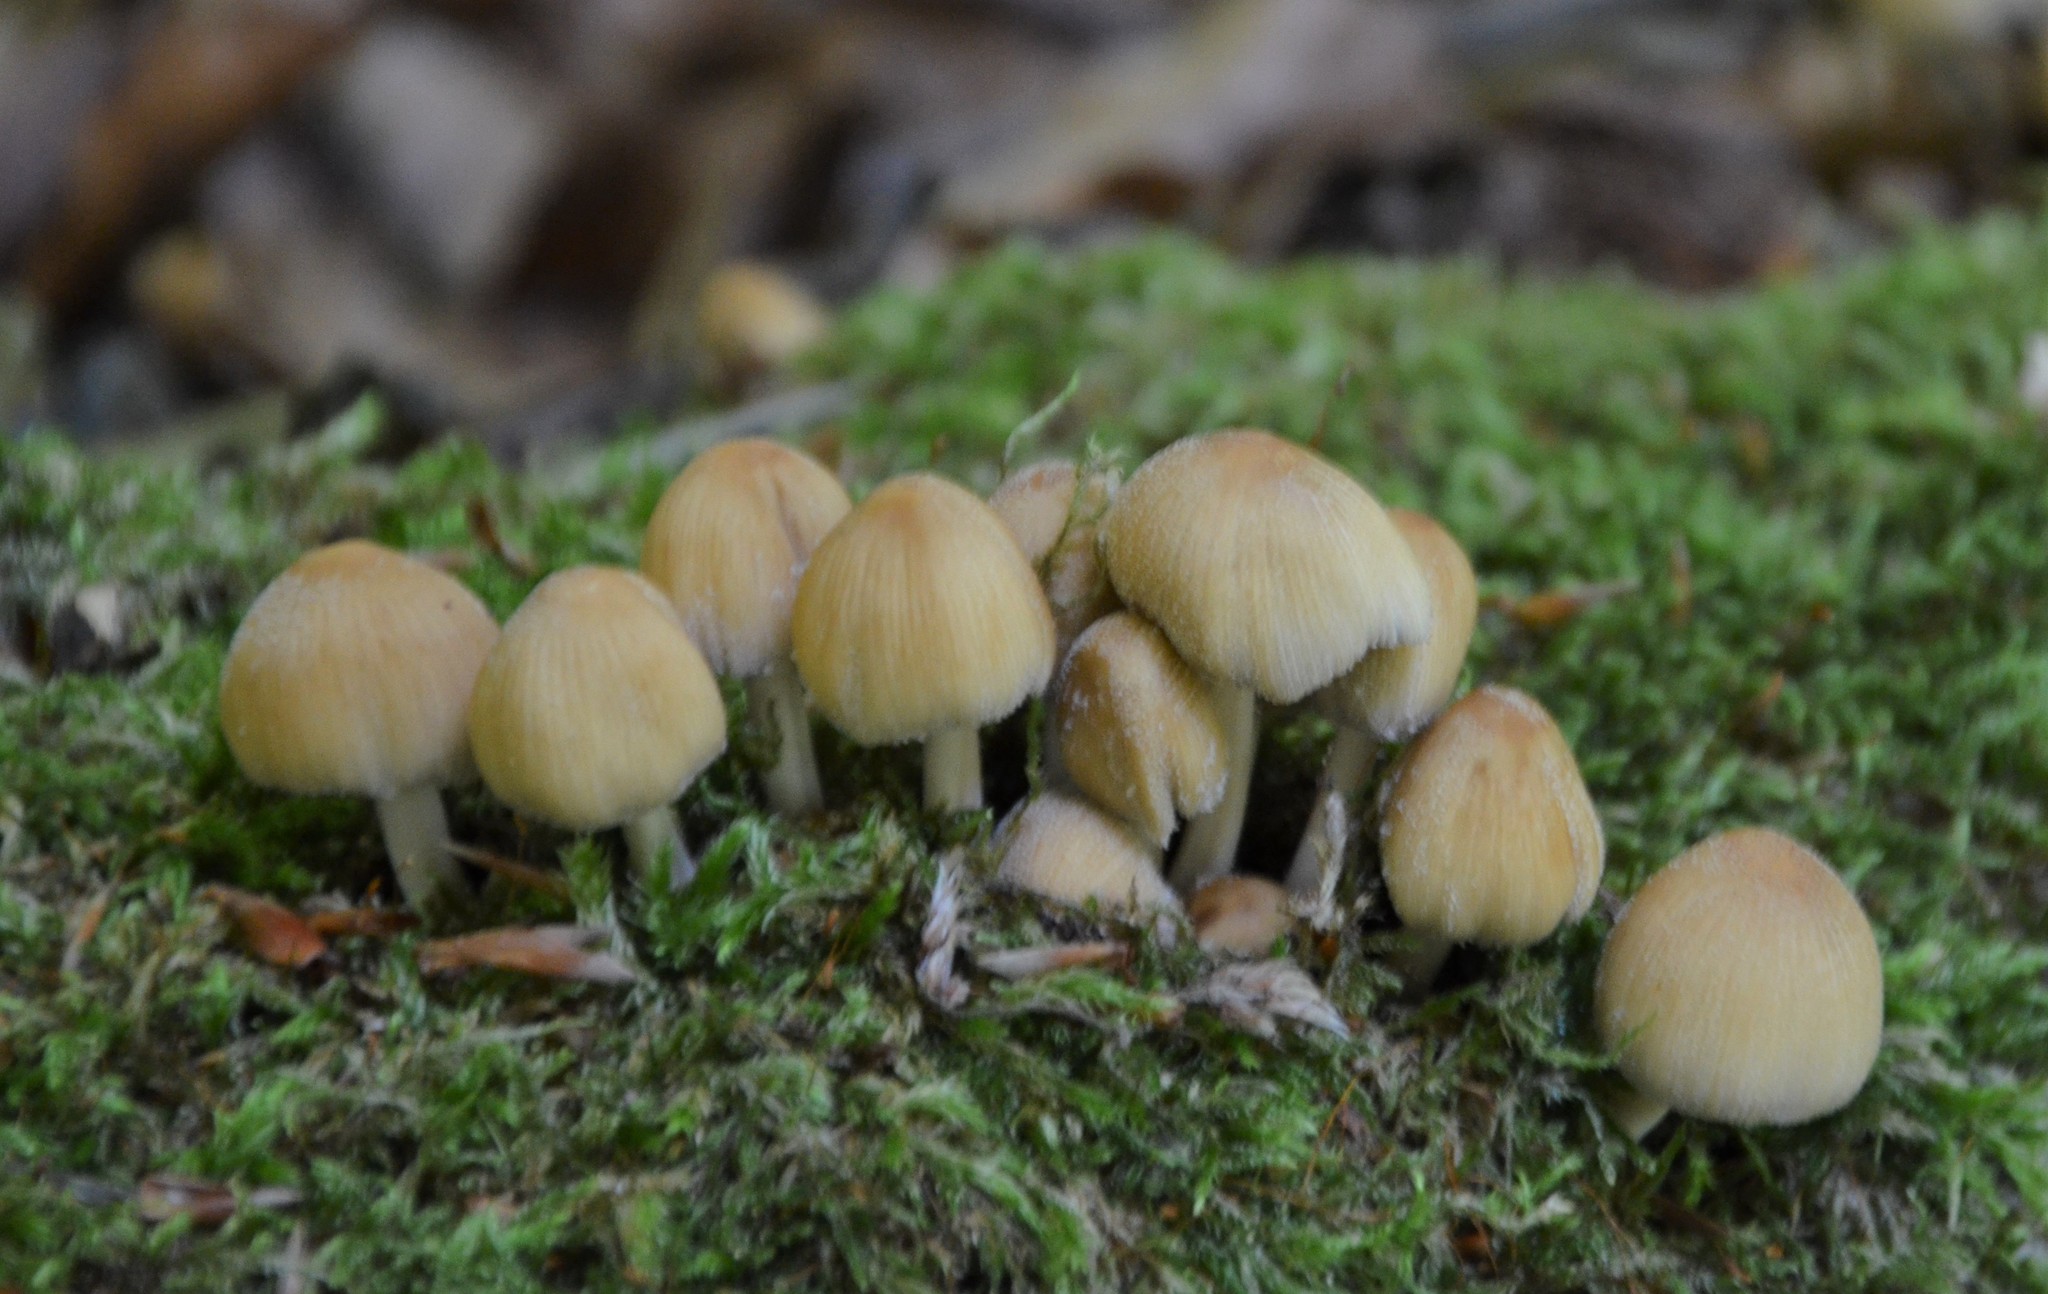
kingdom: Fungi
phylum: Basidiomycota
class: Agaricomycetes
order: Agaricales
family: Psathyrellaceae
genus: Coprinellus
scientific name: Coprinellus micaceus
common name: Glistening ink-cap
